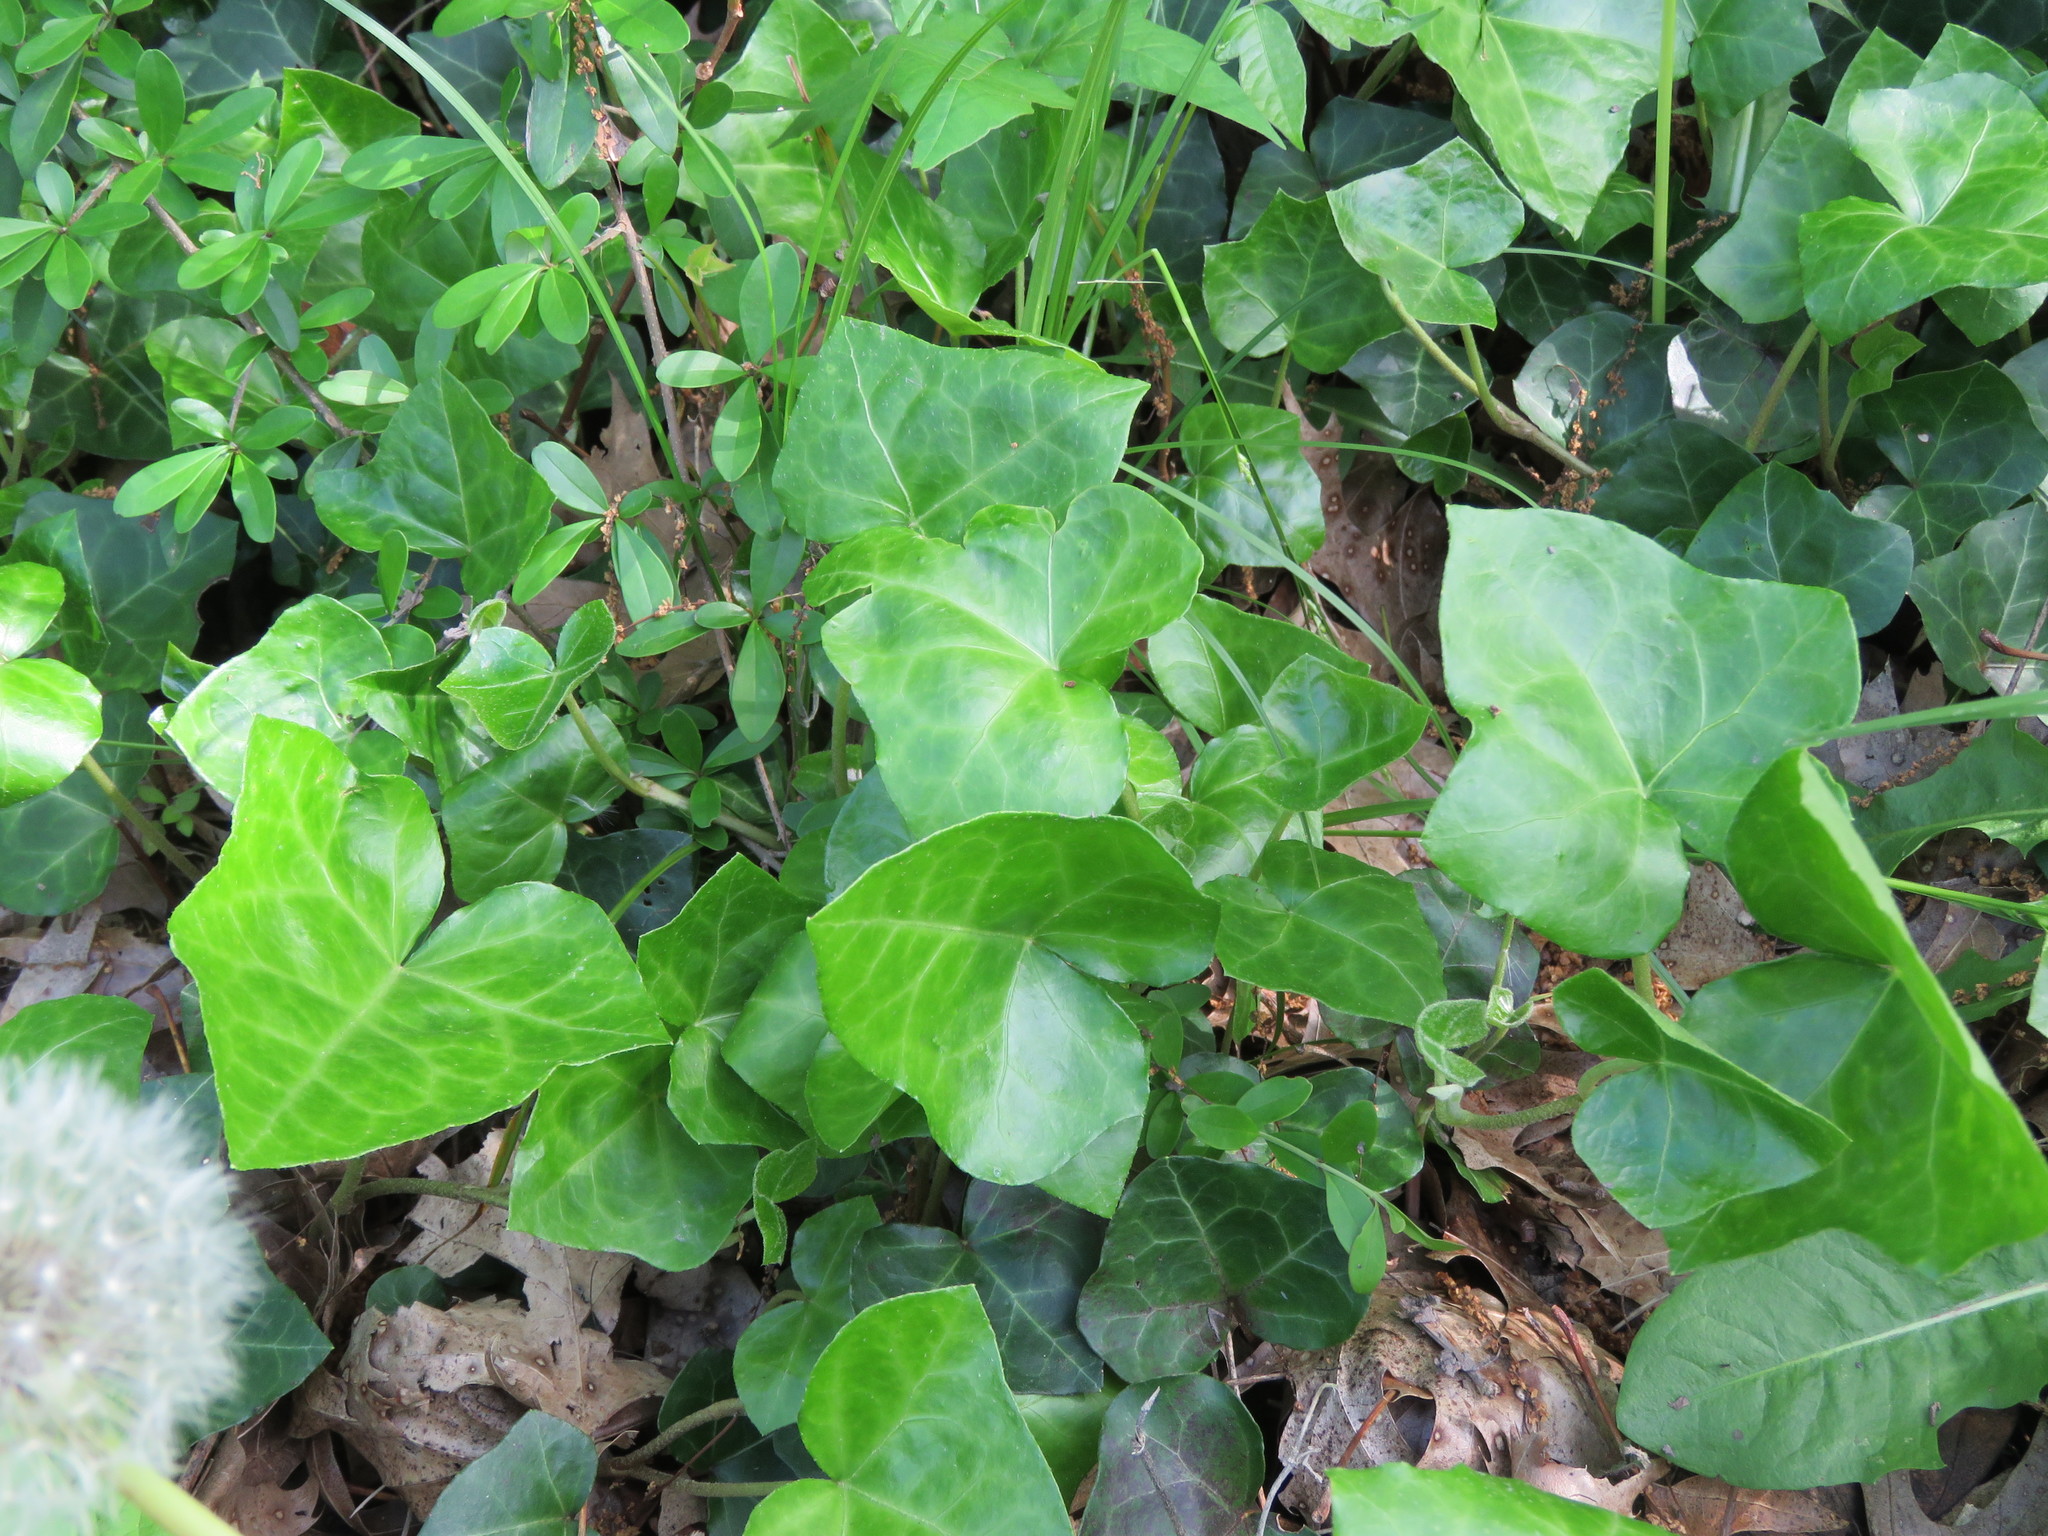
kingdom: Plantae
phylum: Tracheophyta
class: Magnoliopsida
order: Apiales
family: Araliaceae
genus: Hedera
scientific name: Hedera helix
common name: Ivy
